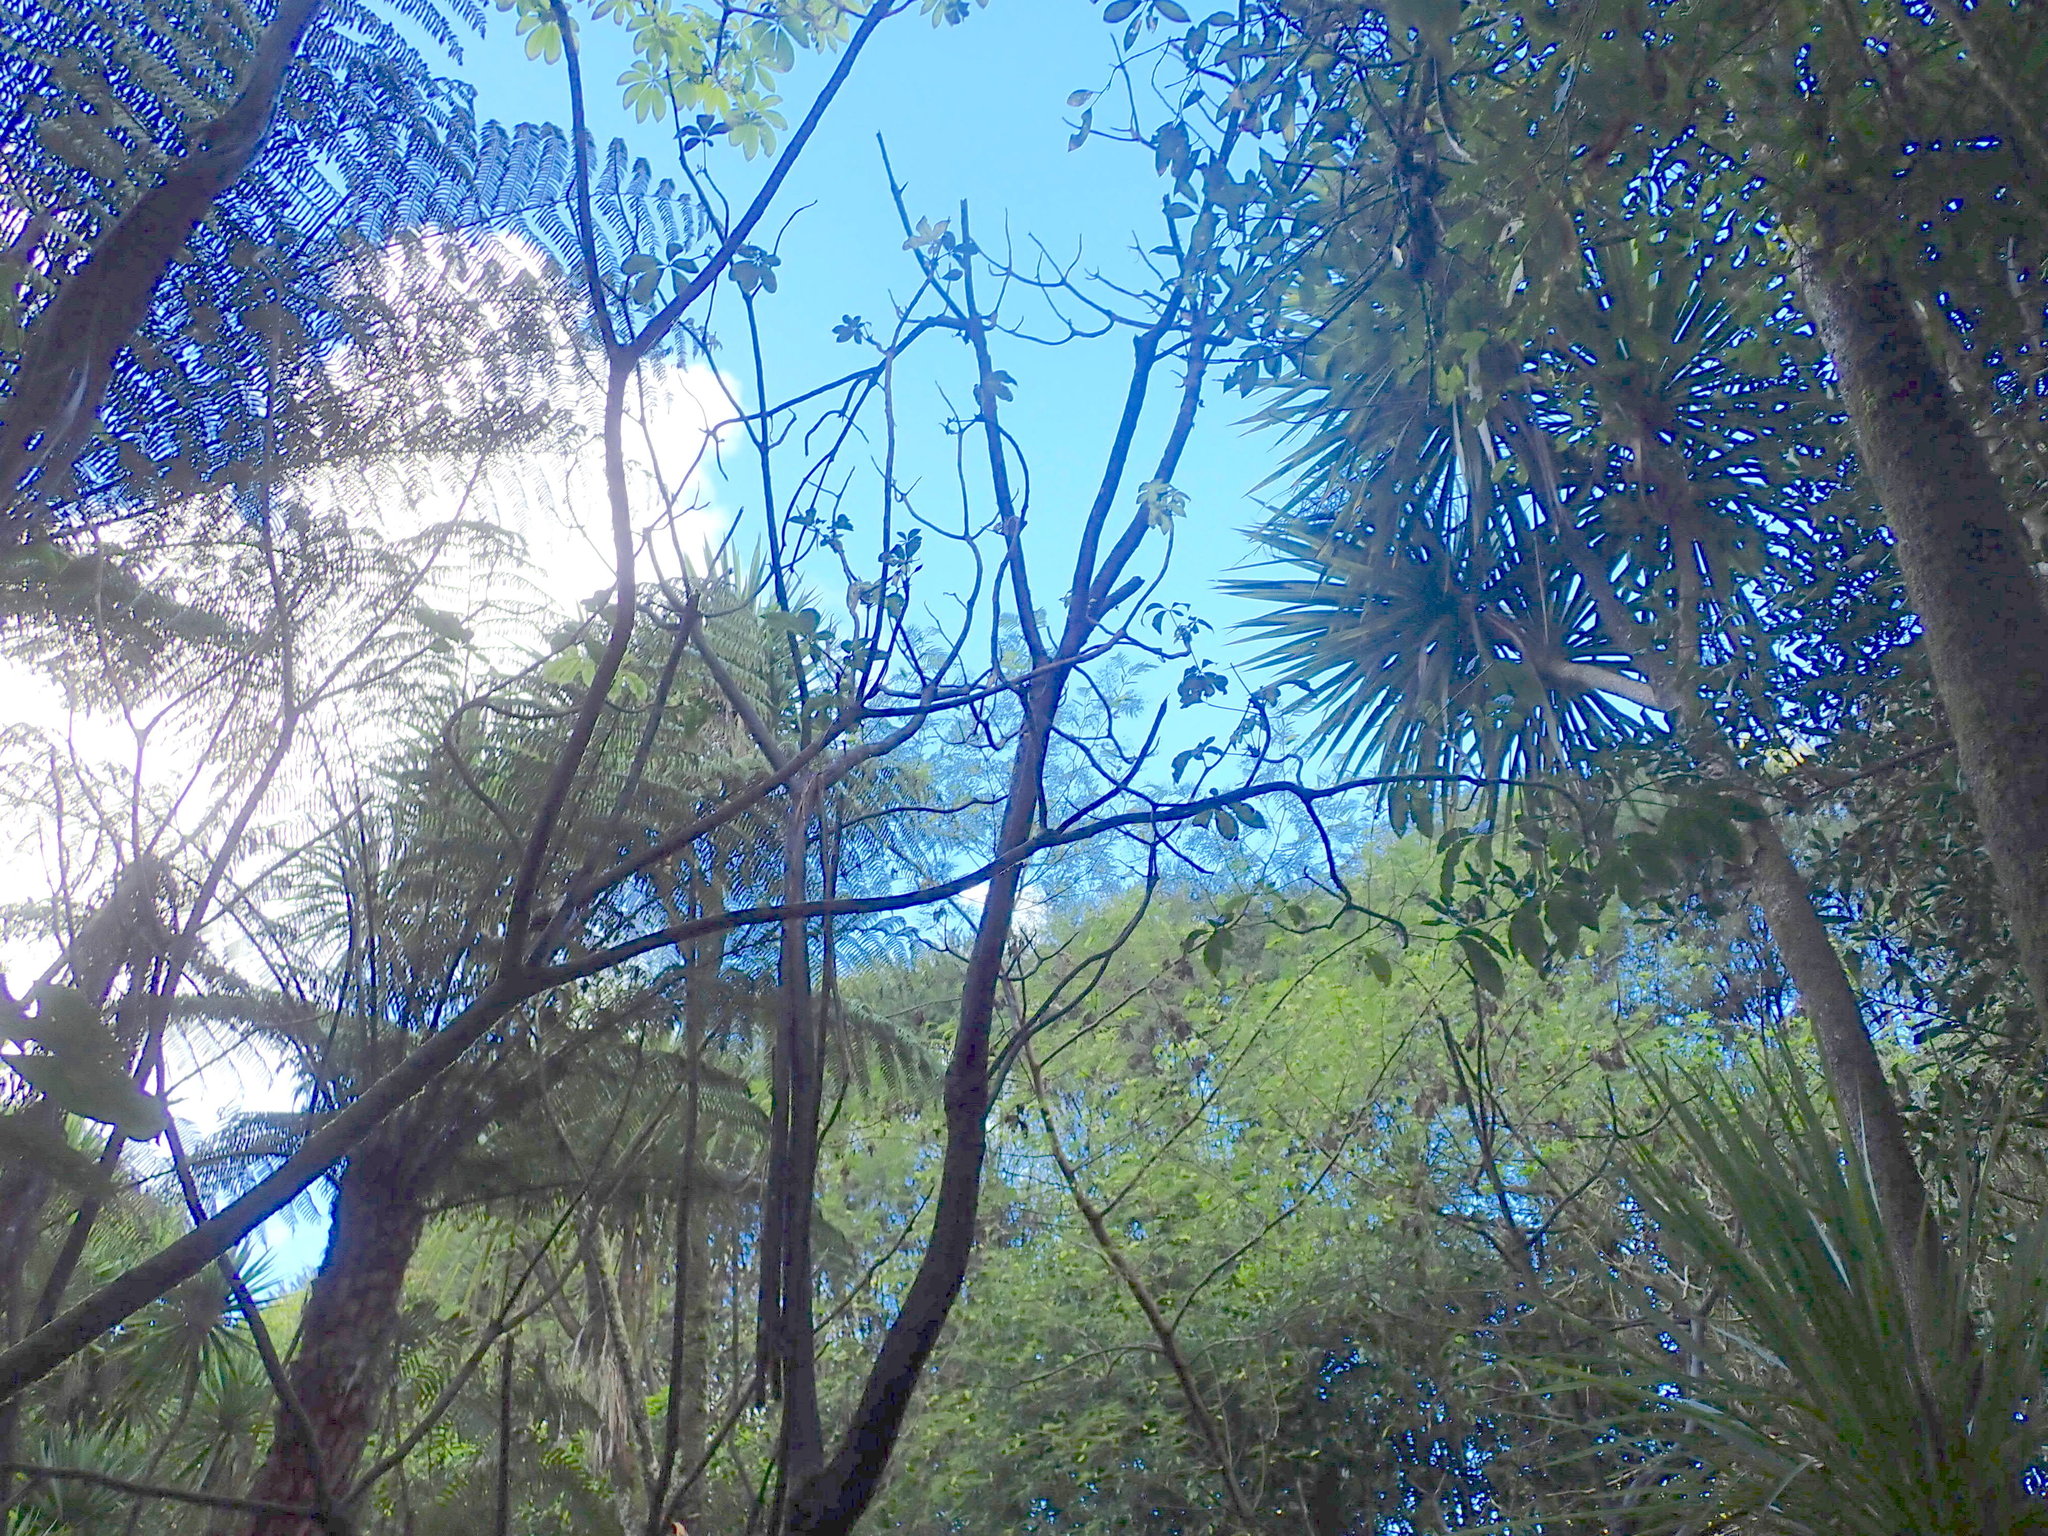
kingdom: Plantae
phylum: Tracheophyta
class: Magnoliopsida
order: Apiales
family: Araliaceae
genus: Schefflera
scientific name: Schefflera digitata
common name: Pate
